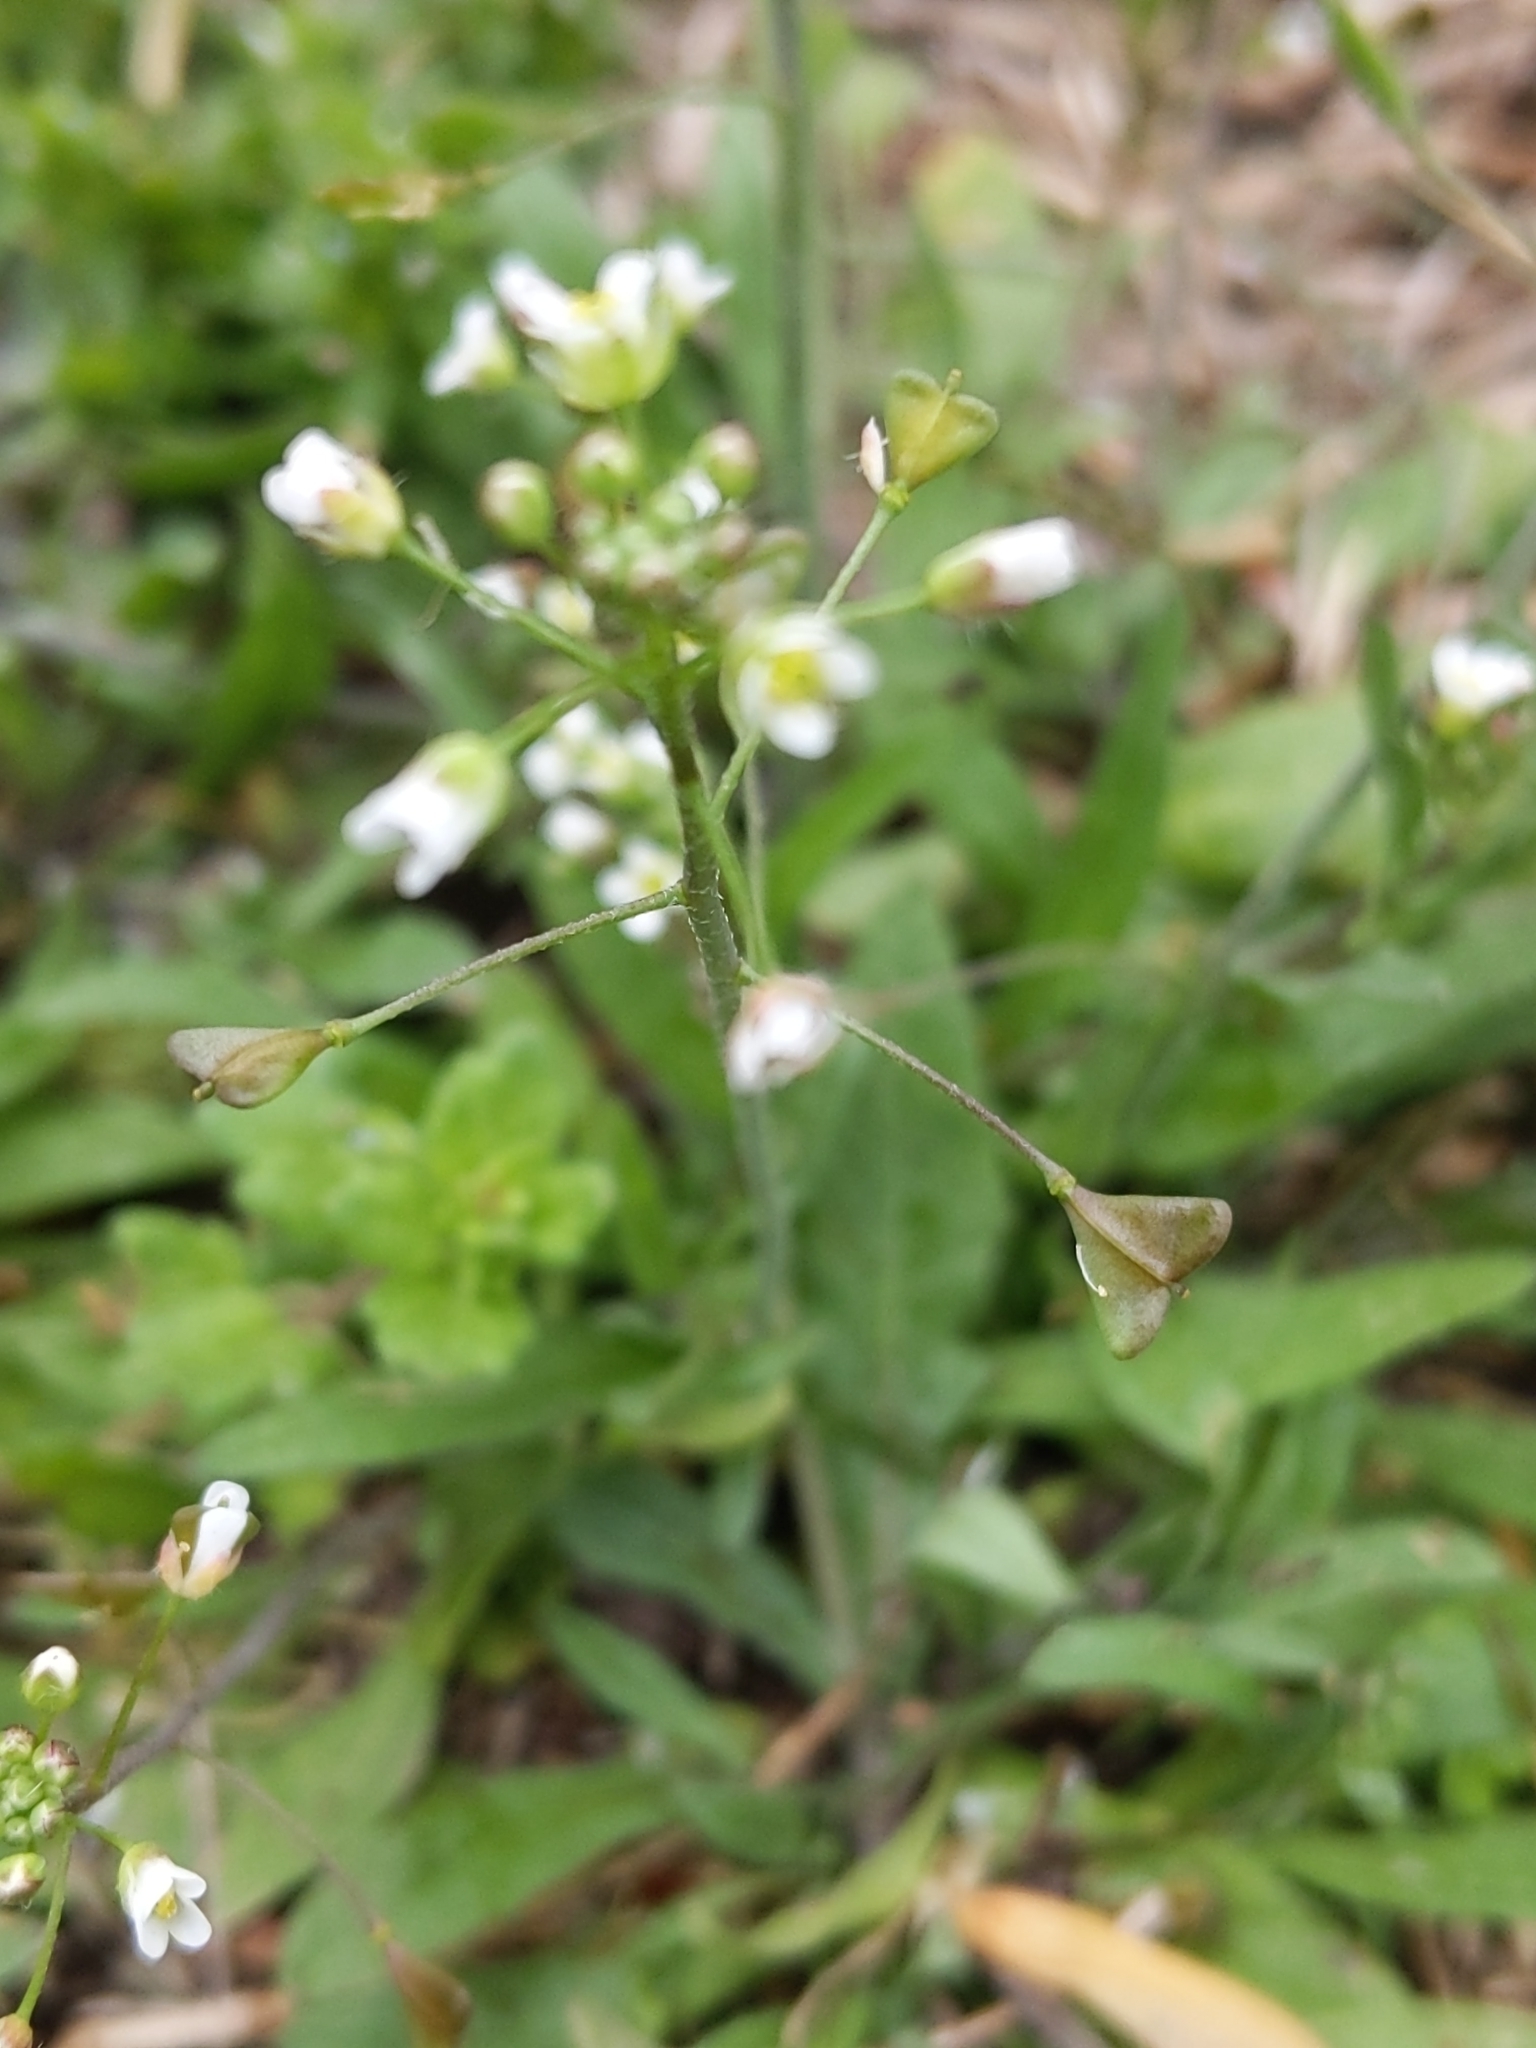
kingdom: Plantae
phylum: Tracheophyta
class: Magnoliopsida
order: Brassicales
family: Brassicaceae
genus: Capsella
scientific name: Capsella bursa-pastoris
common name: Shepherd's purse
